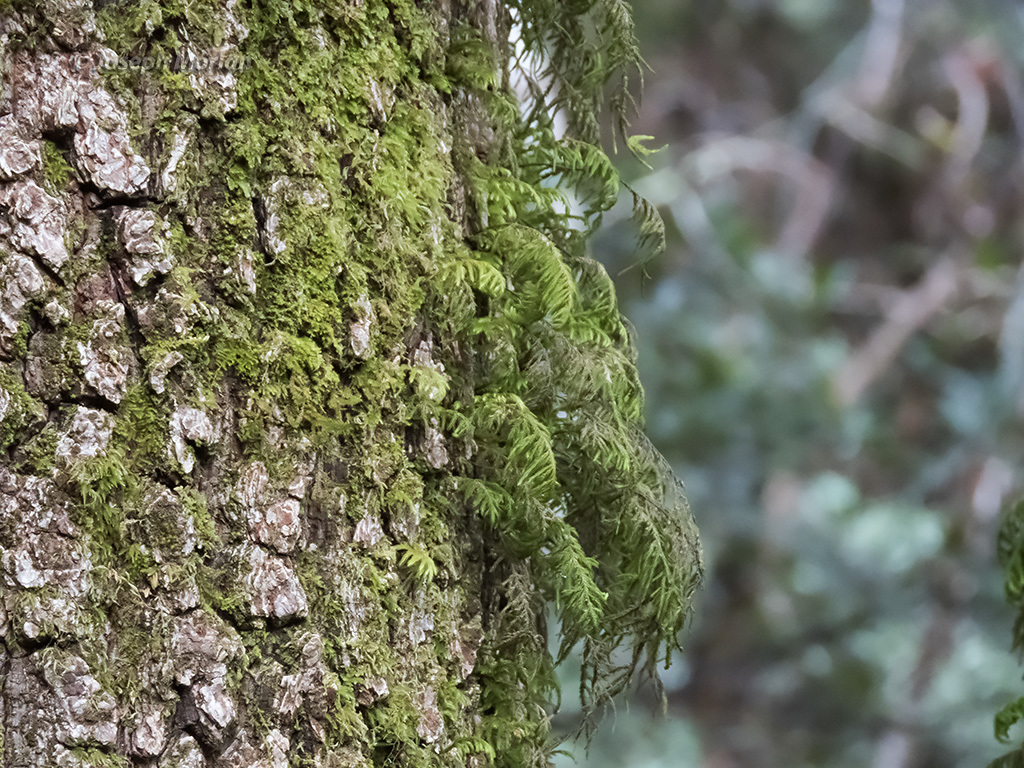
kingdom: Plantae
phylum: Bryophyta
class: Bryopsida
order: Hypnales
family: Cryphaeaceae
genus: Dendroalsia
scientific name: Dendroalsia abietina
